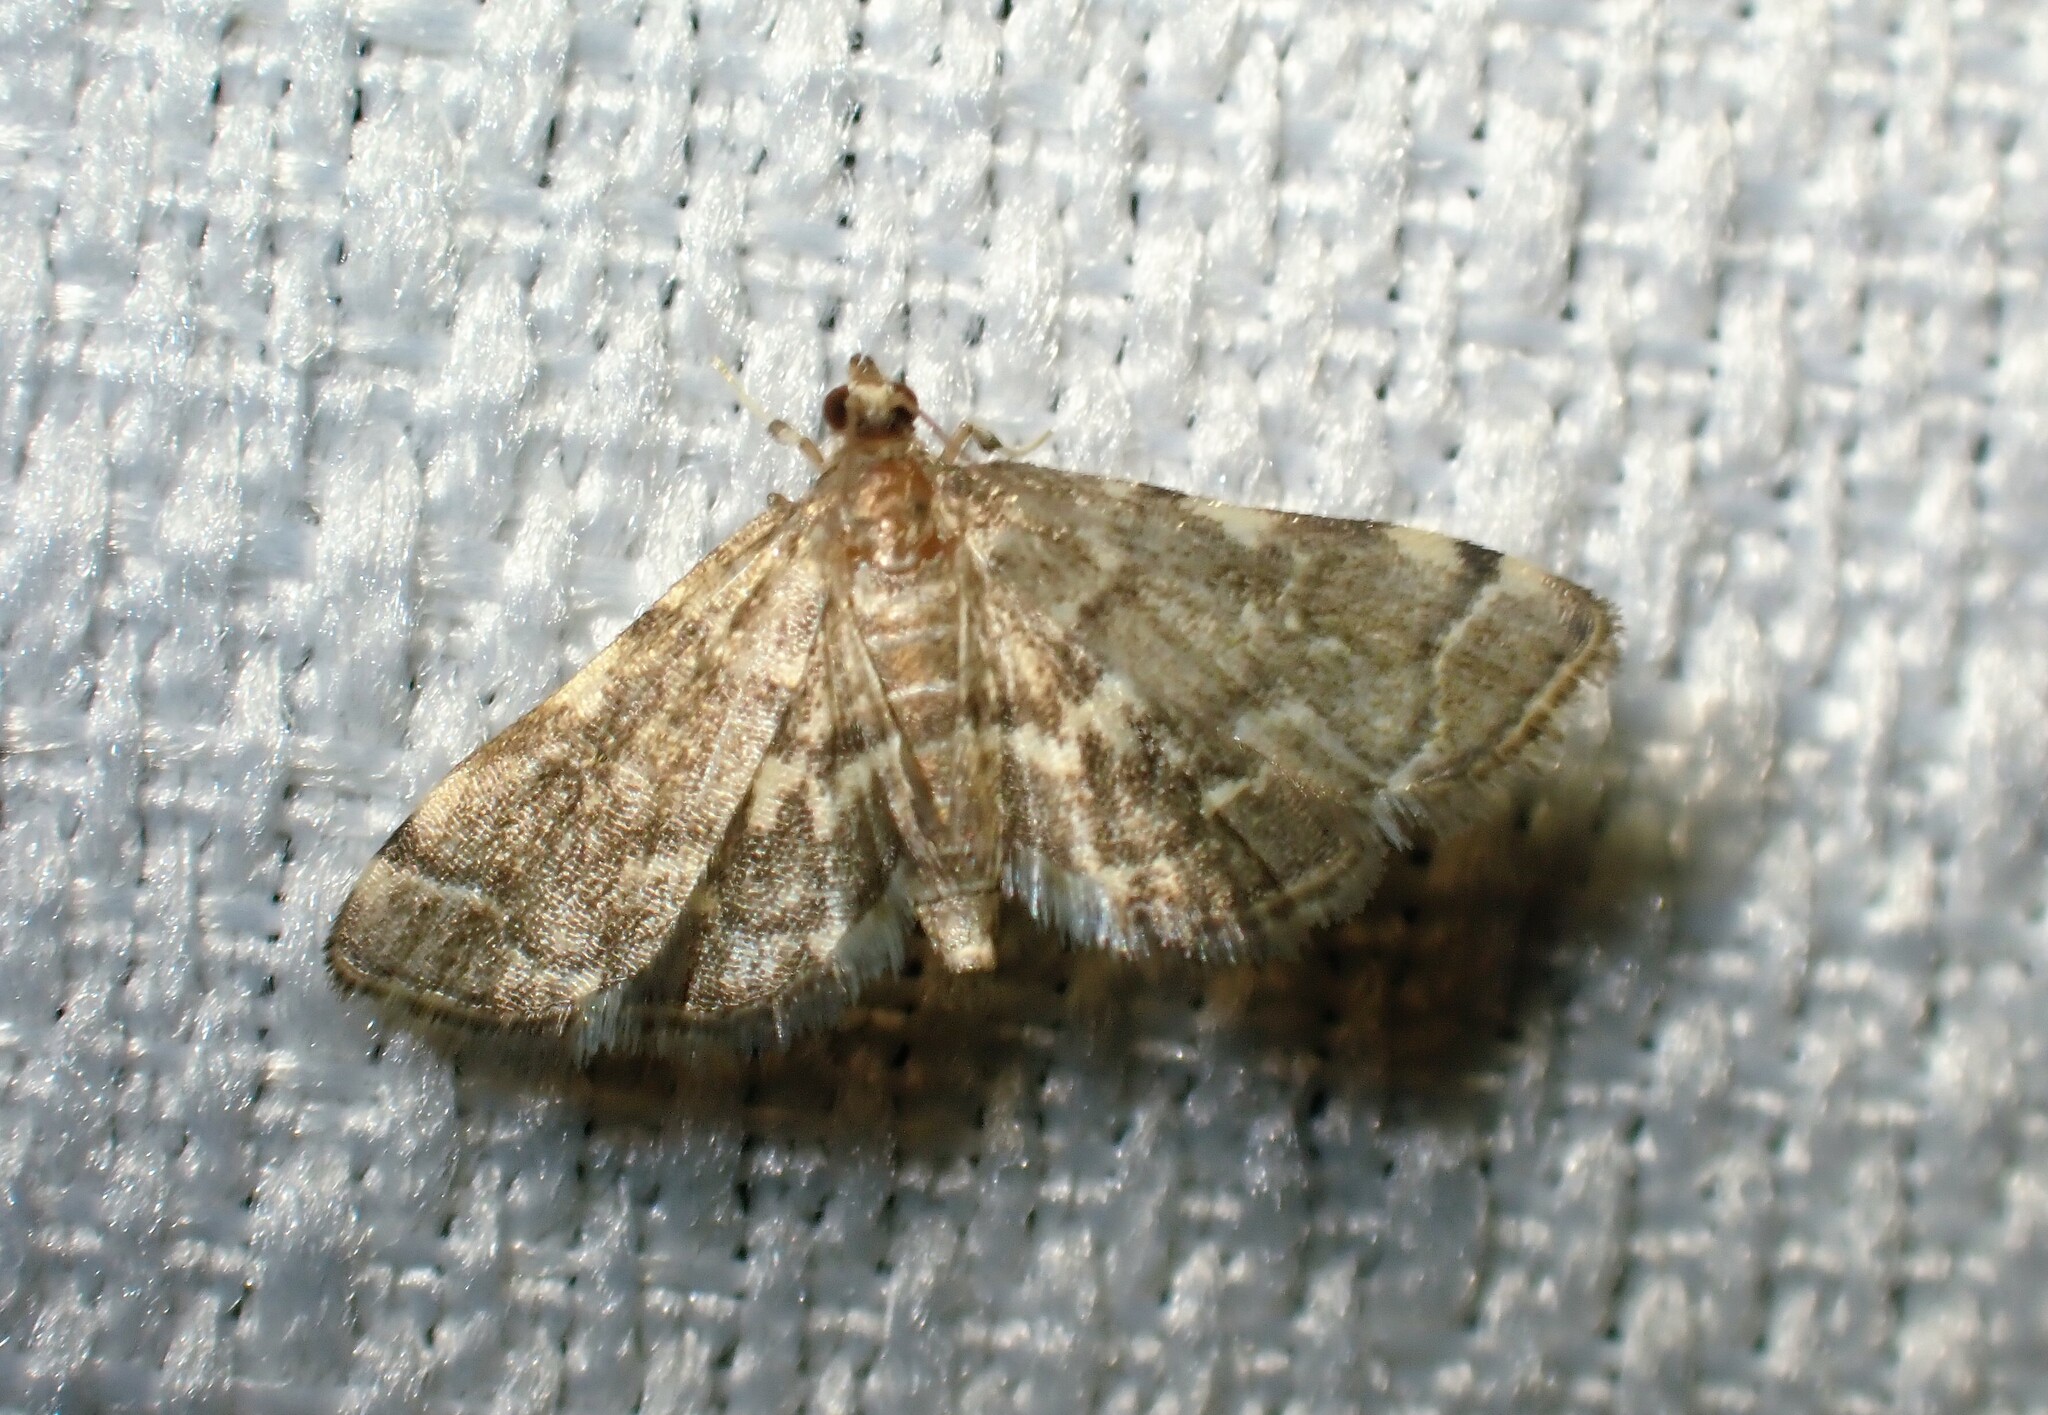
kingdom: Animalia
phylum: Arthropoda
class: Insecta
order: Lepidoptera
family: Crambidae
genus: Anageshna
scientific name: Anageshna primordialis
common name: Yellow-spotted webworm moth
